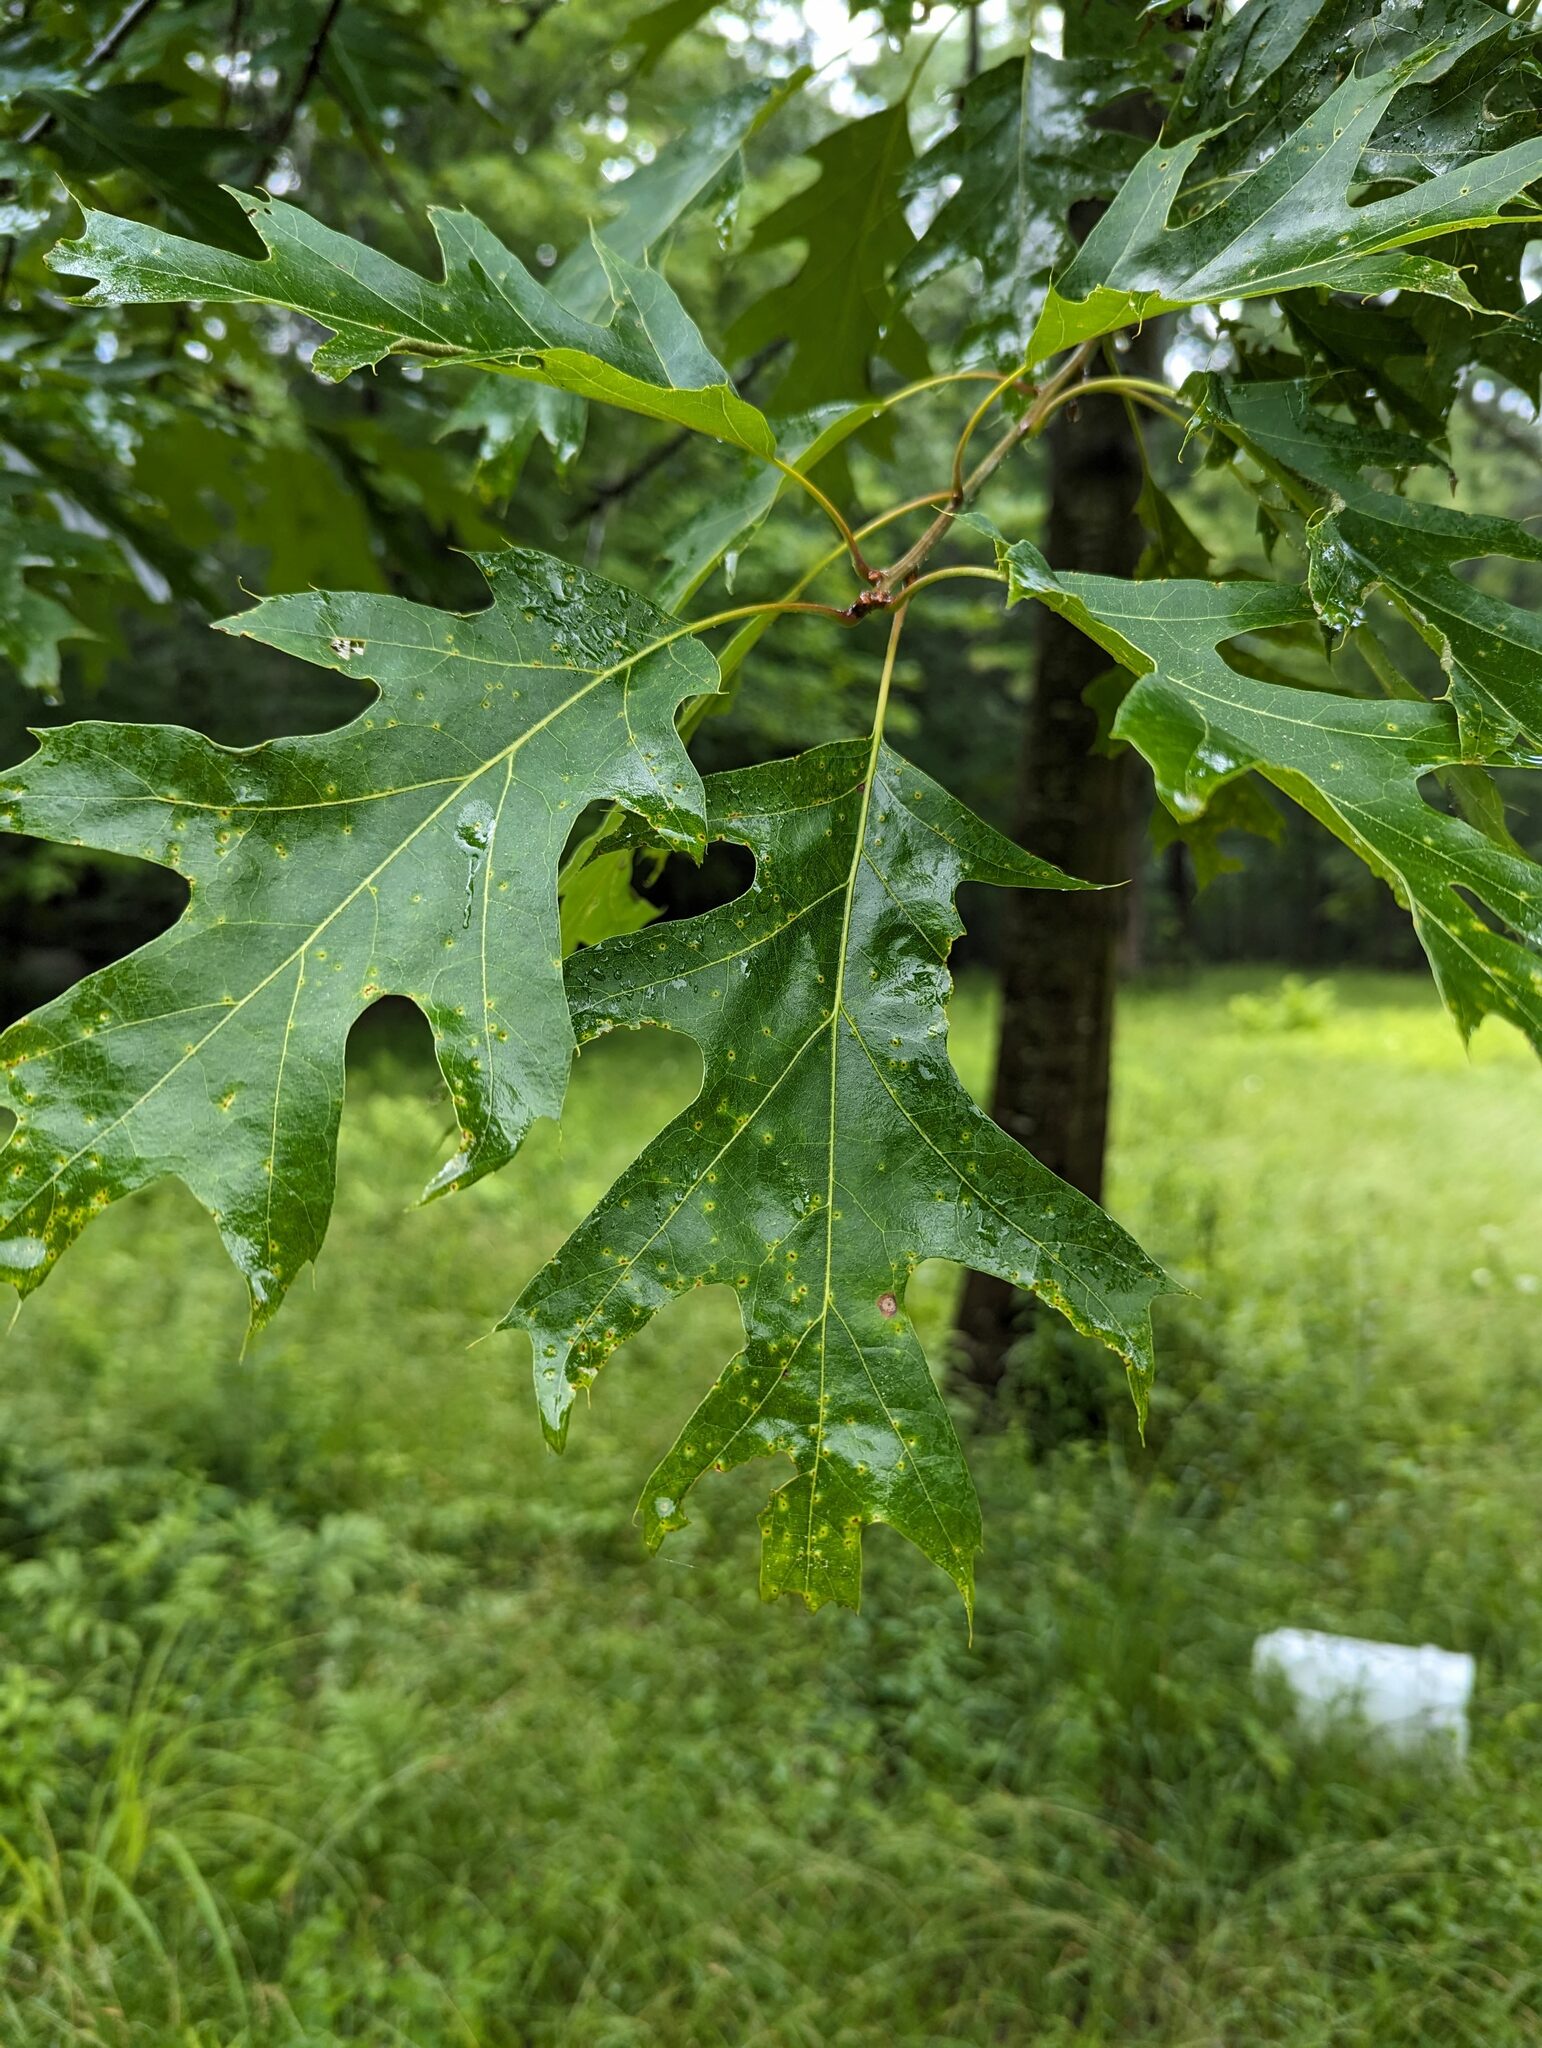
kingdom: Plantae
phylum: Tracheophyta
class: Magnoliopsida
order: Fagales
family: Fagaceae
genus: Quercus
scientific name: Quercus rubra
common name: Red oak
